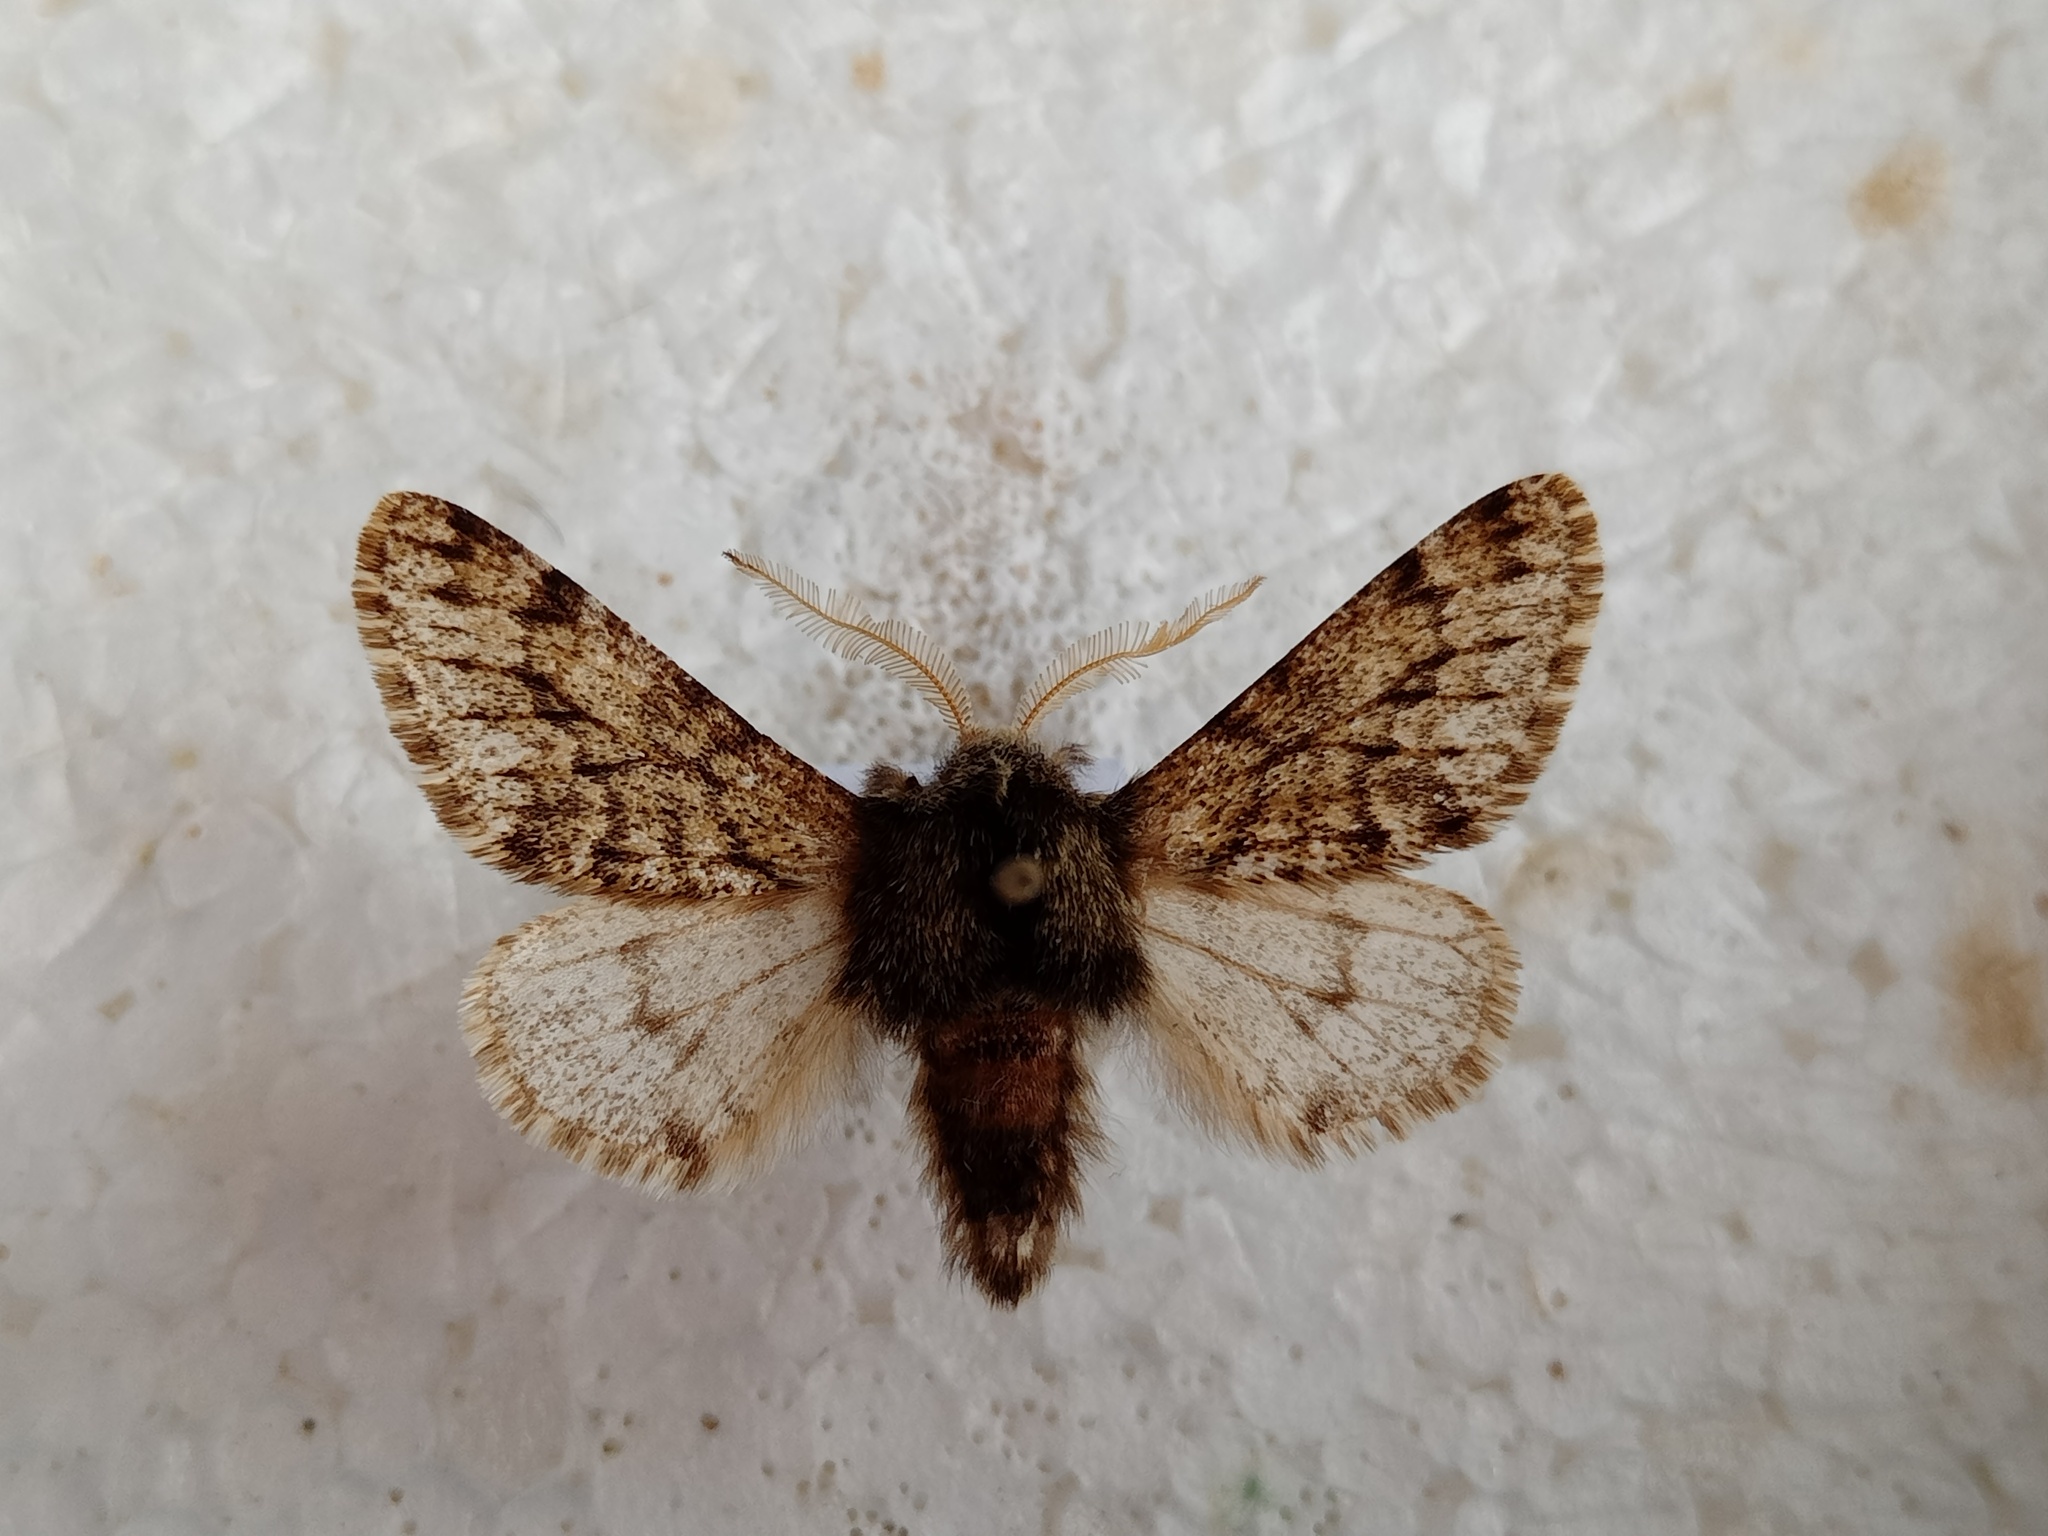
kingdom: Animalia
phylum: Arthropoda
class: Insecta
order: Lepidoptera
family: Geometridae
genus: Apocheima
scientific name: Apocheima hispidaria
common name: Small brindled beauty
